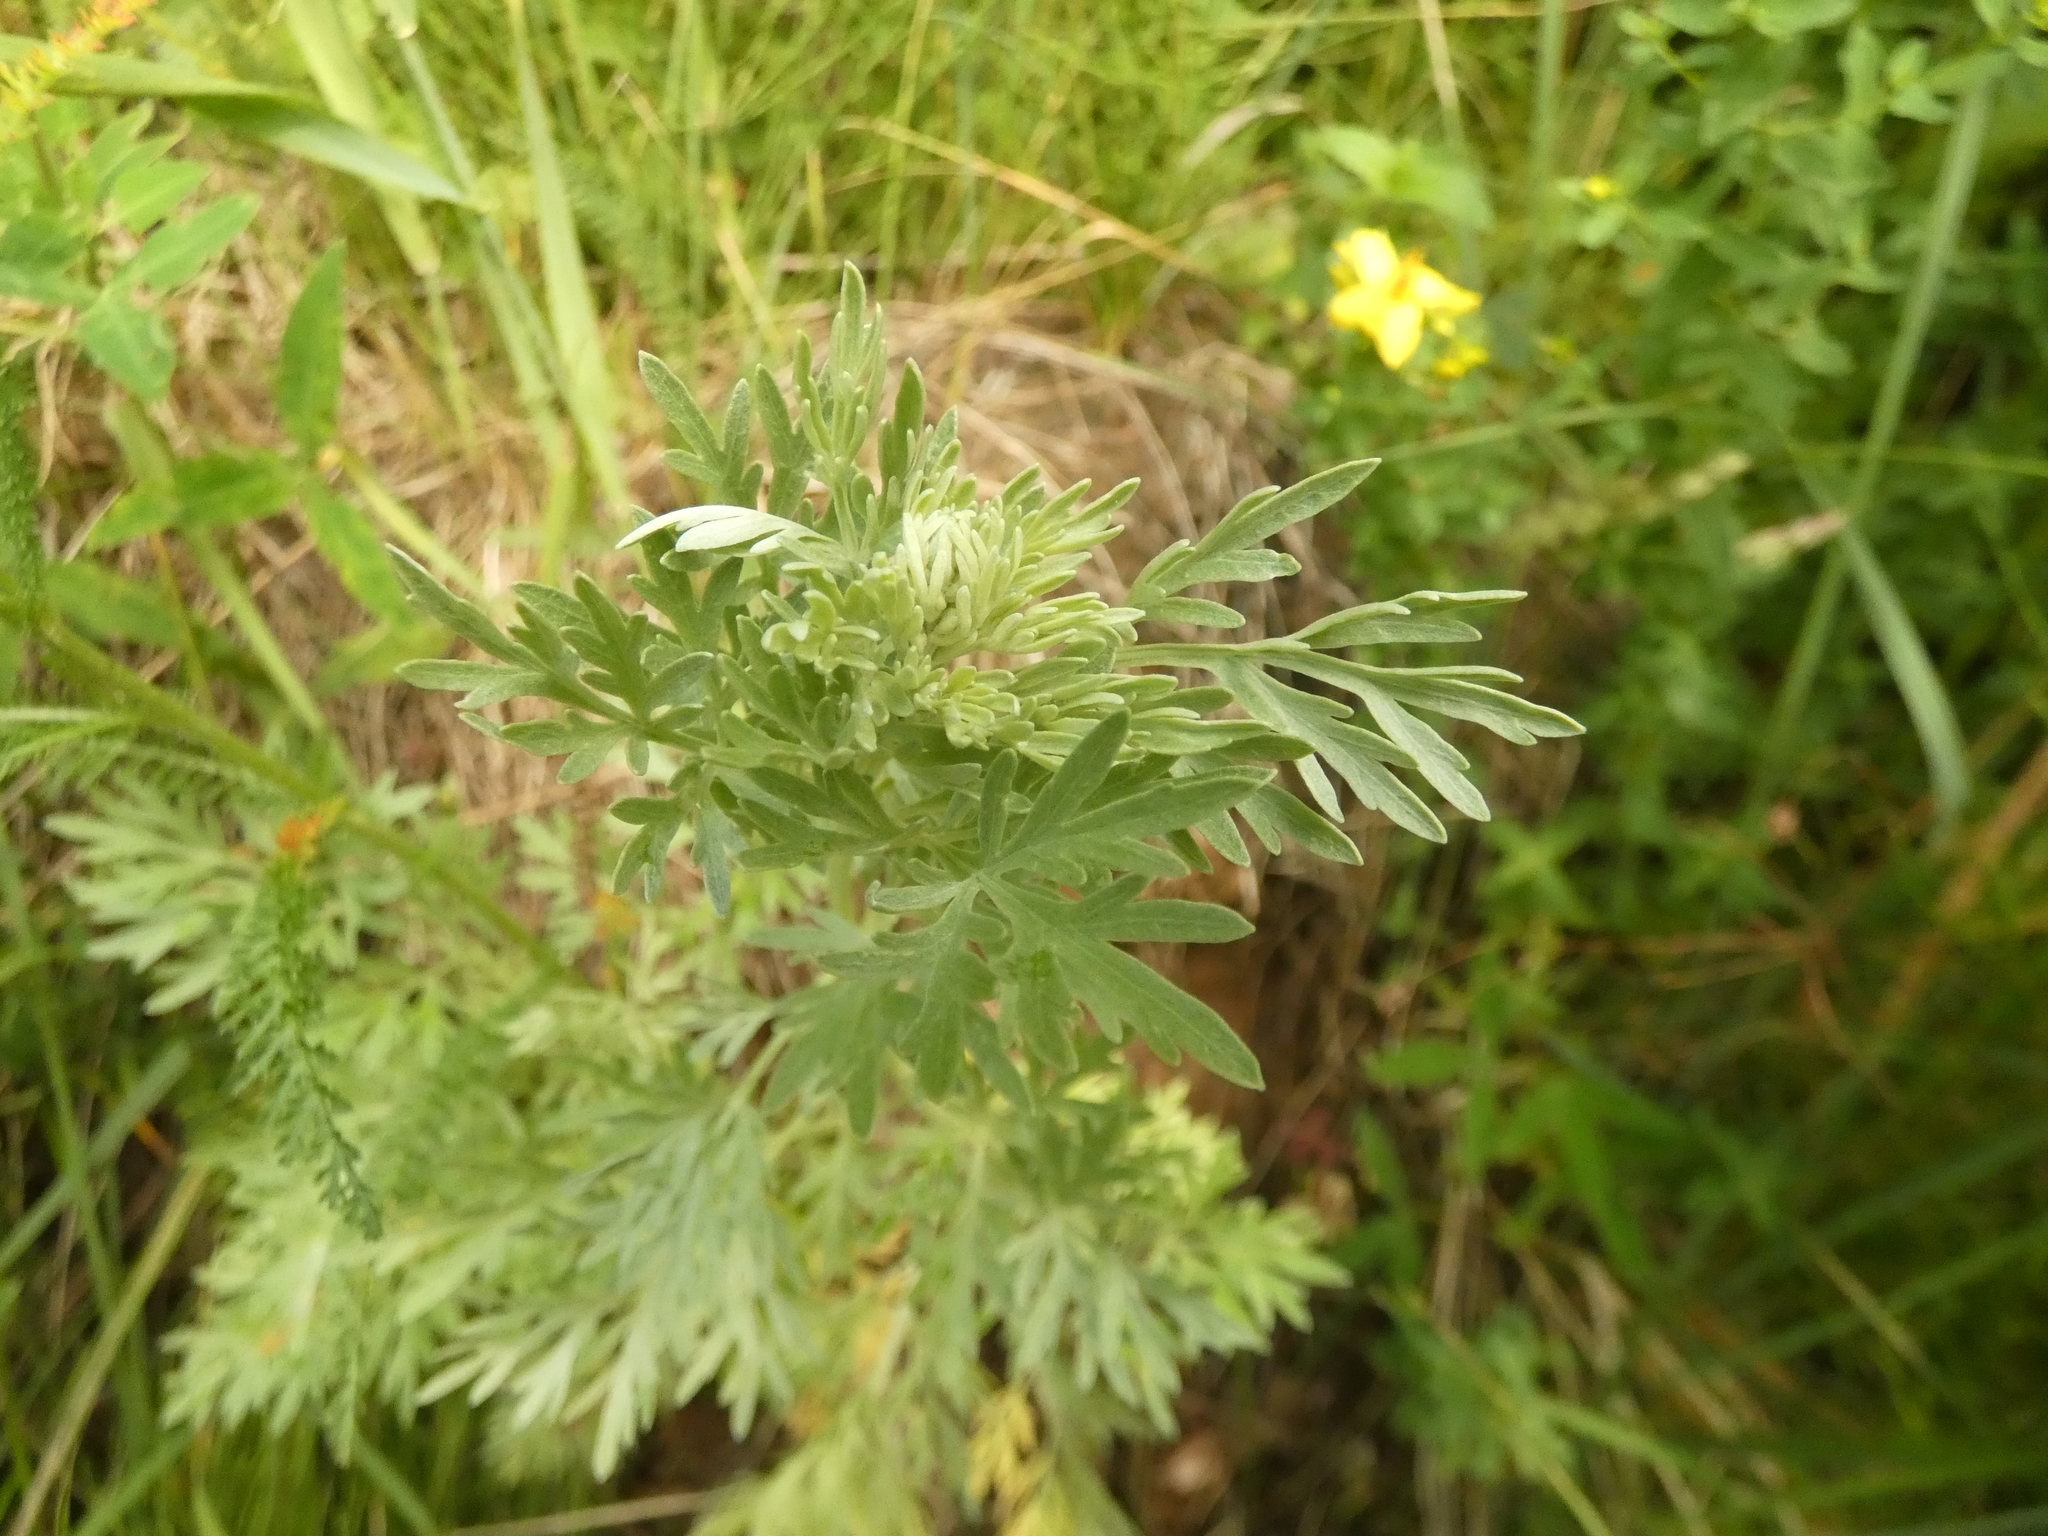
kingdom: Plantae
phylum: Tracheophyta
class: Magnoliopsida
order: Asterales
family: Asteraceae
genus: Artemisia
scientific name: Artemisia absinthium
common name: Wormwood
